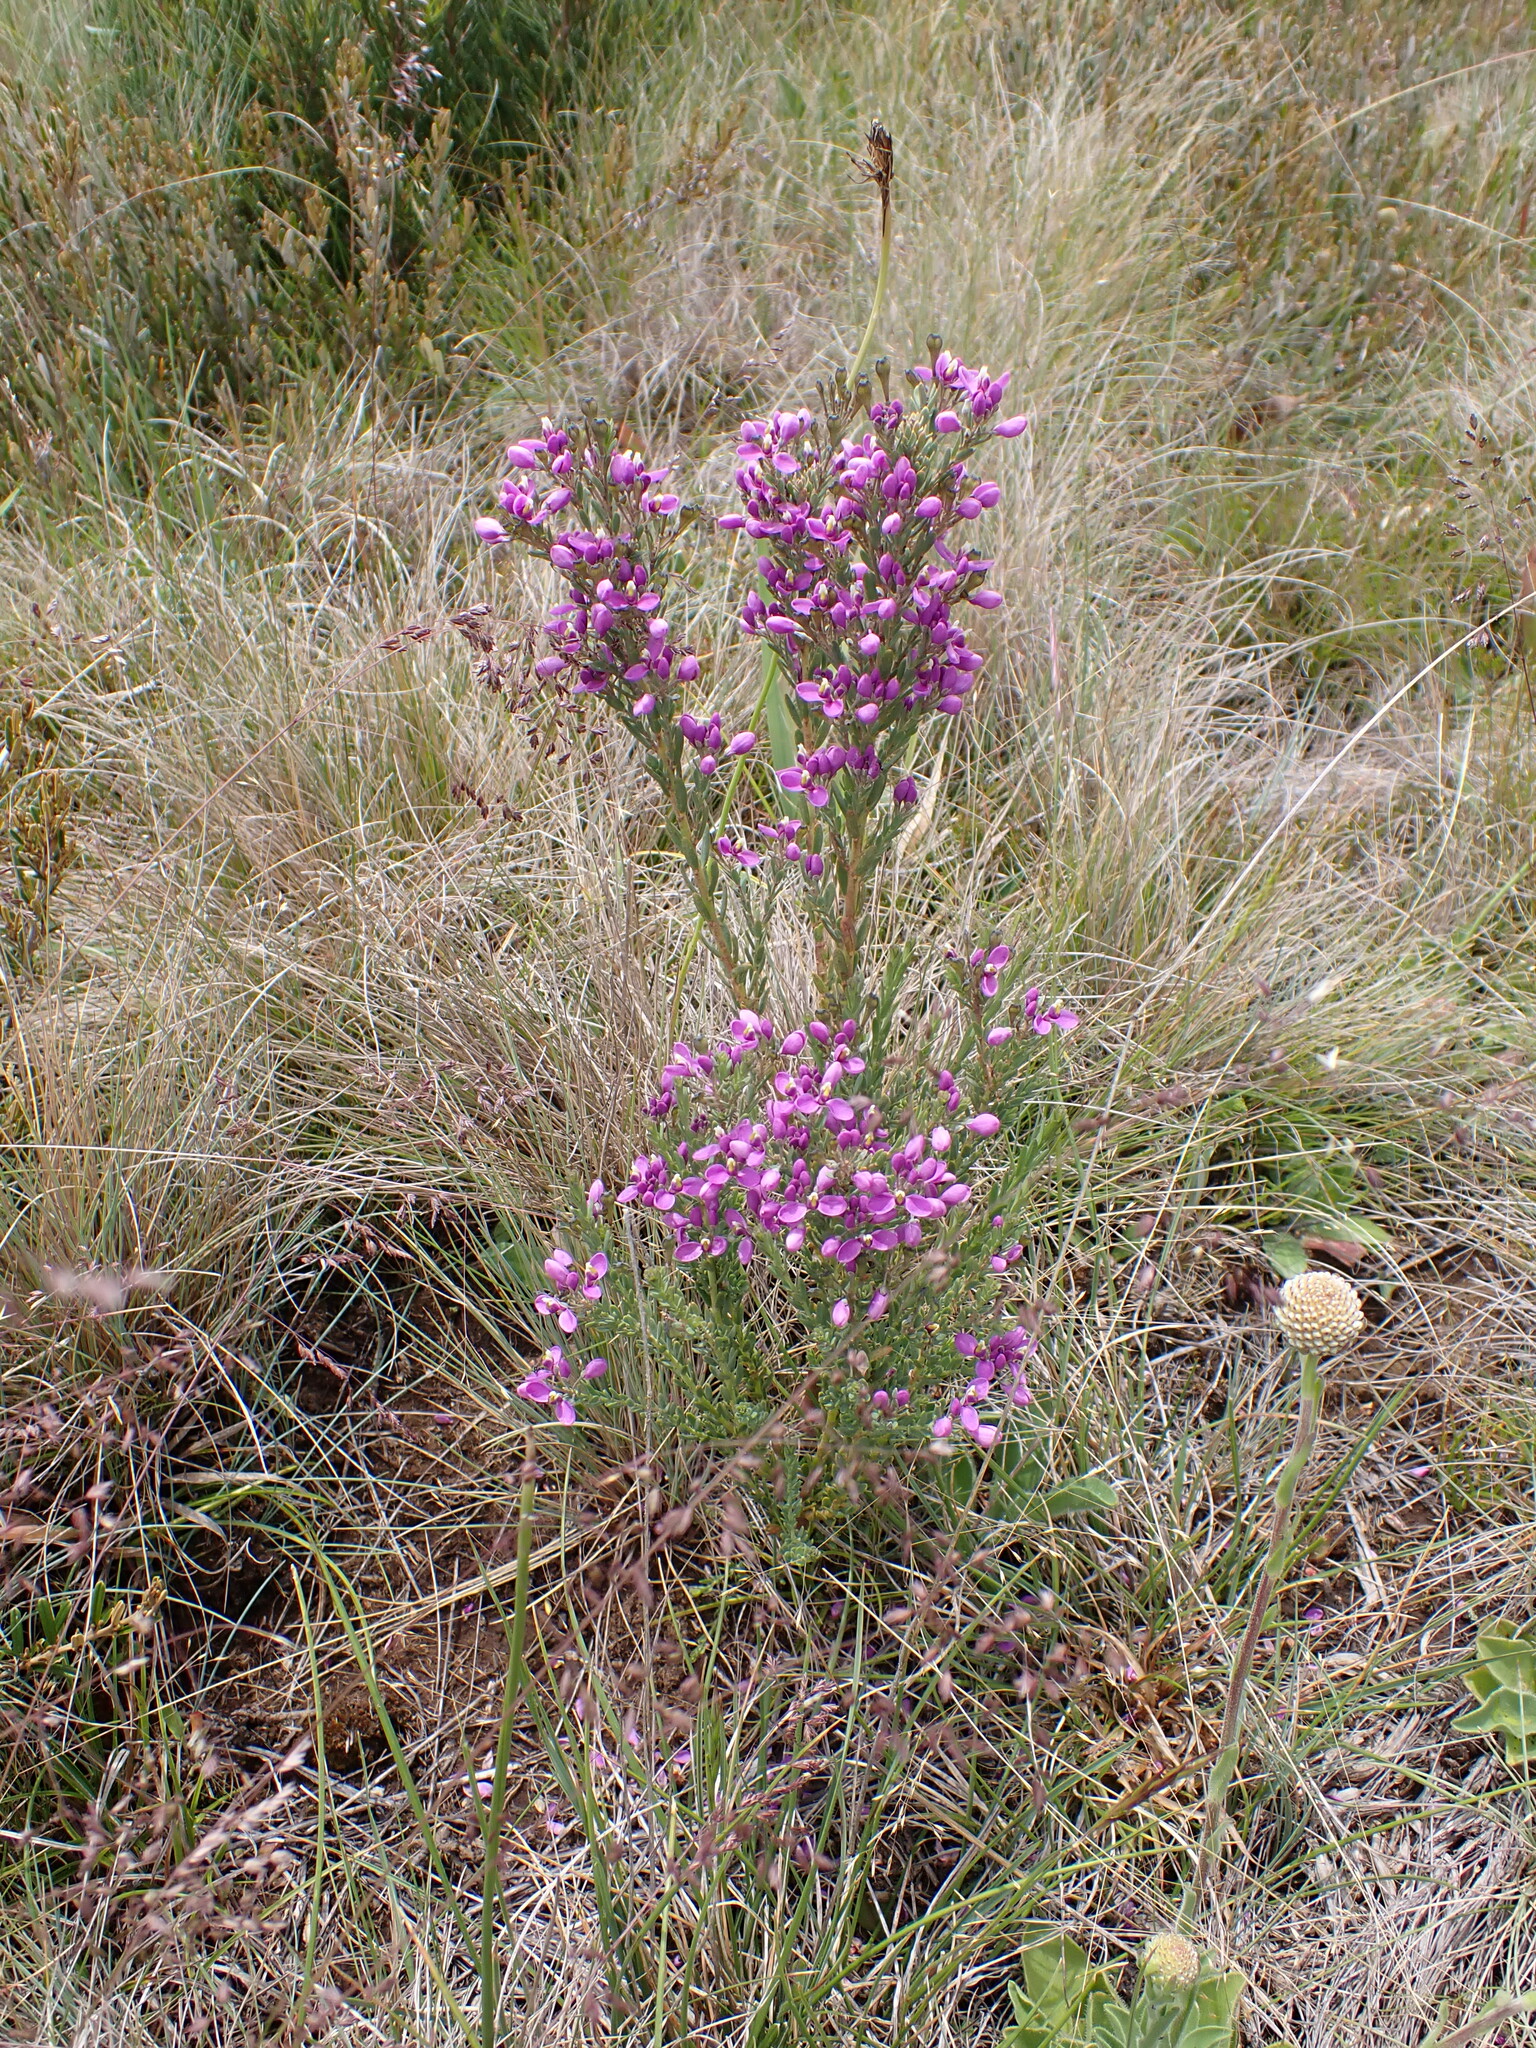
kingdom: Plantae
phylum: Tracheophyta
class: Magnoliopsida
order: Fabales
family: Polygalaceae
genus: Comesperma
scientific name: Comesperma retusum
